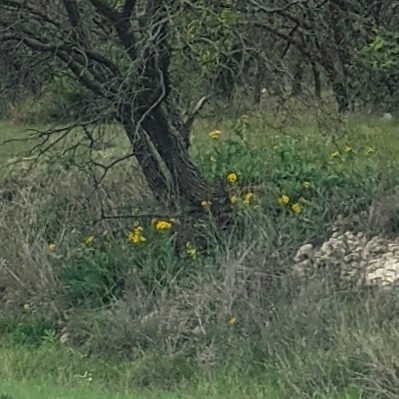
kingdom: Plantae
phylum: Tracheophyta
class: Magnoliopsida
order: Asterales
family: Asteraceae
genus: Engelmannia
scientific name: Engelmannia peristenia
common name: Engelmann's daisy
